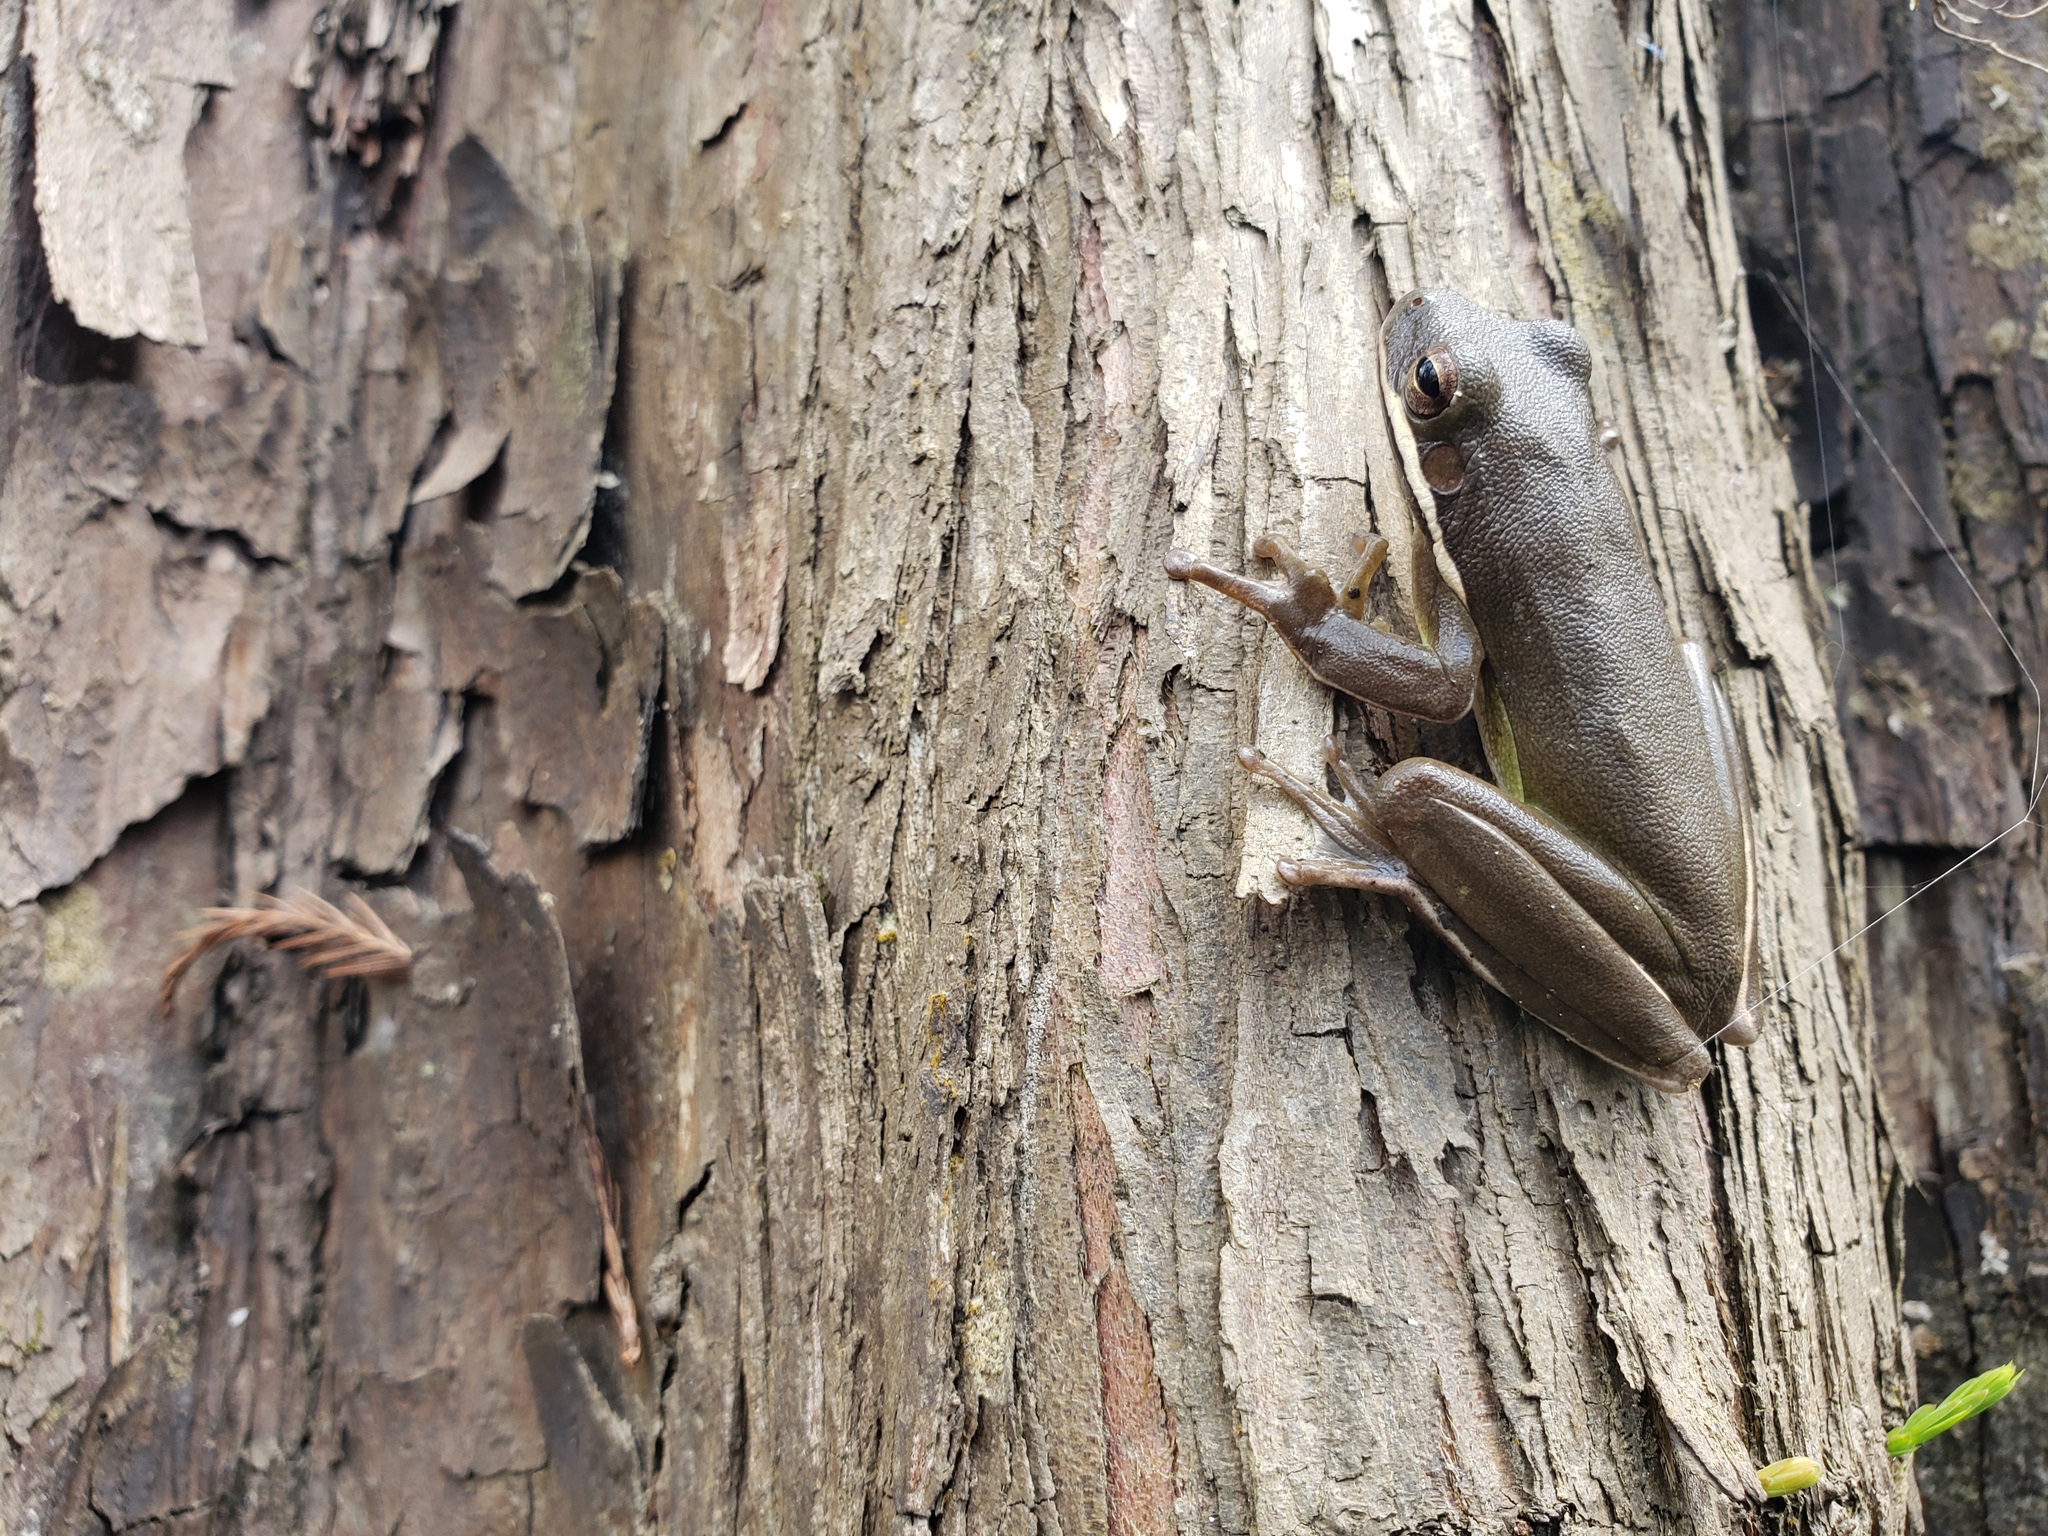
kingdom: Animalia
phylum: Chordata
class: Amphibia
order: Anura
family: Hylidae
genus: Dryophytes
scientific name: Dryophytes cinereus
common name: Green treefrog
